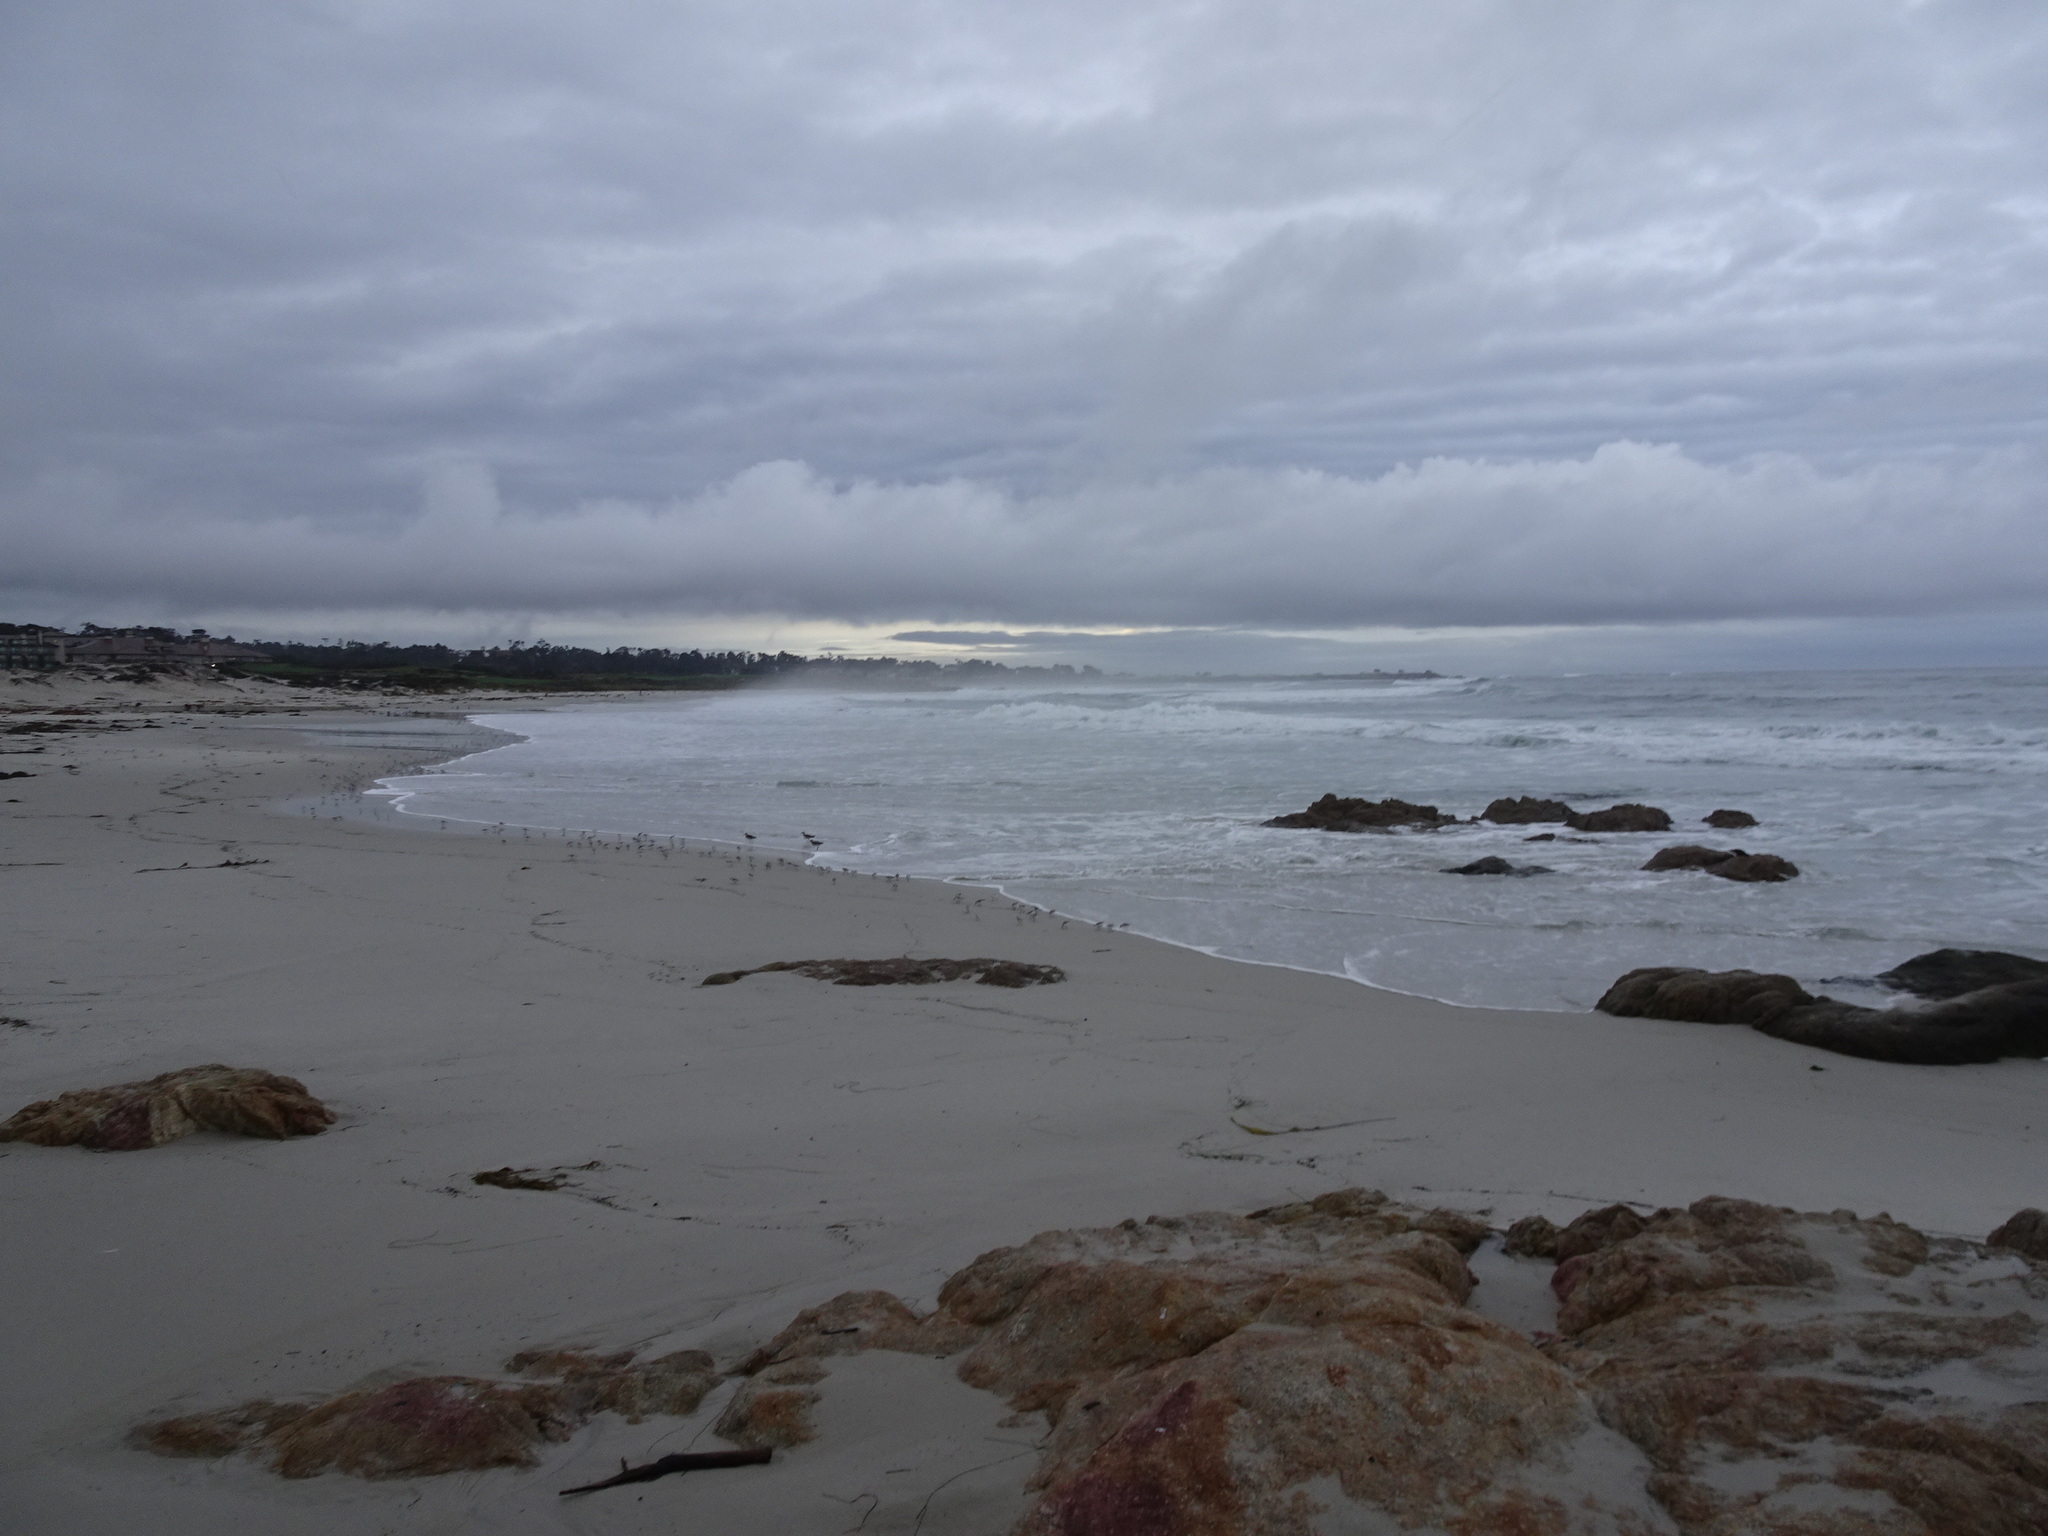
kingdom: Animalia
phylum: Chordata
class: Aves
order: Charadriiformes
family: Scolopacidae
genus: Calidris
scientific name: Calidris alba
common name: Sanderling
